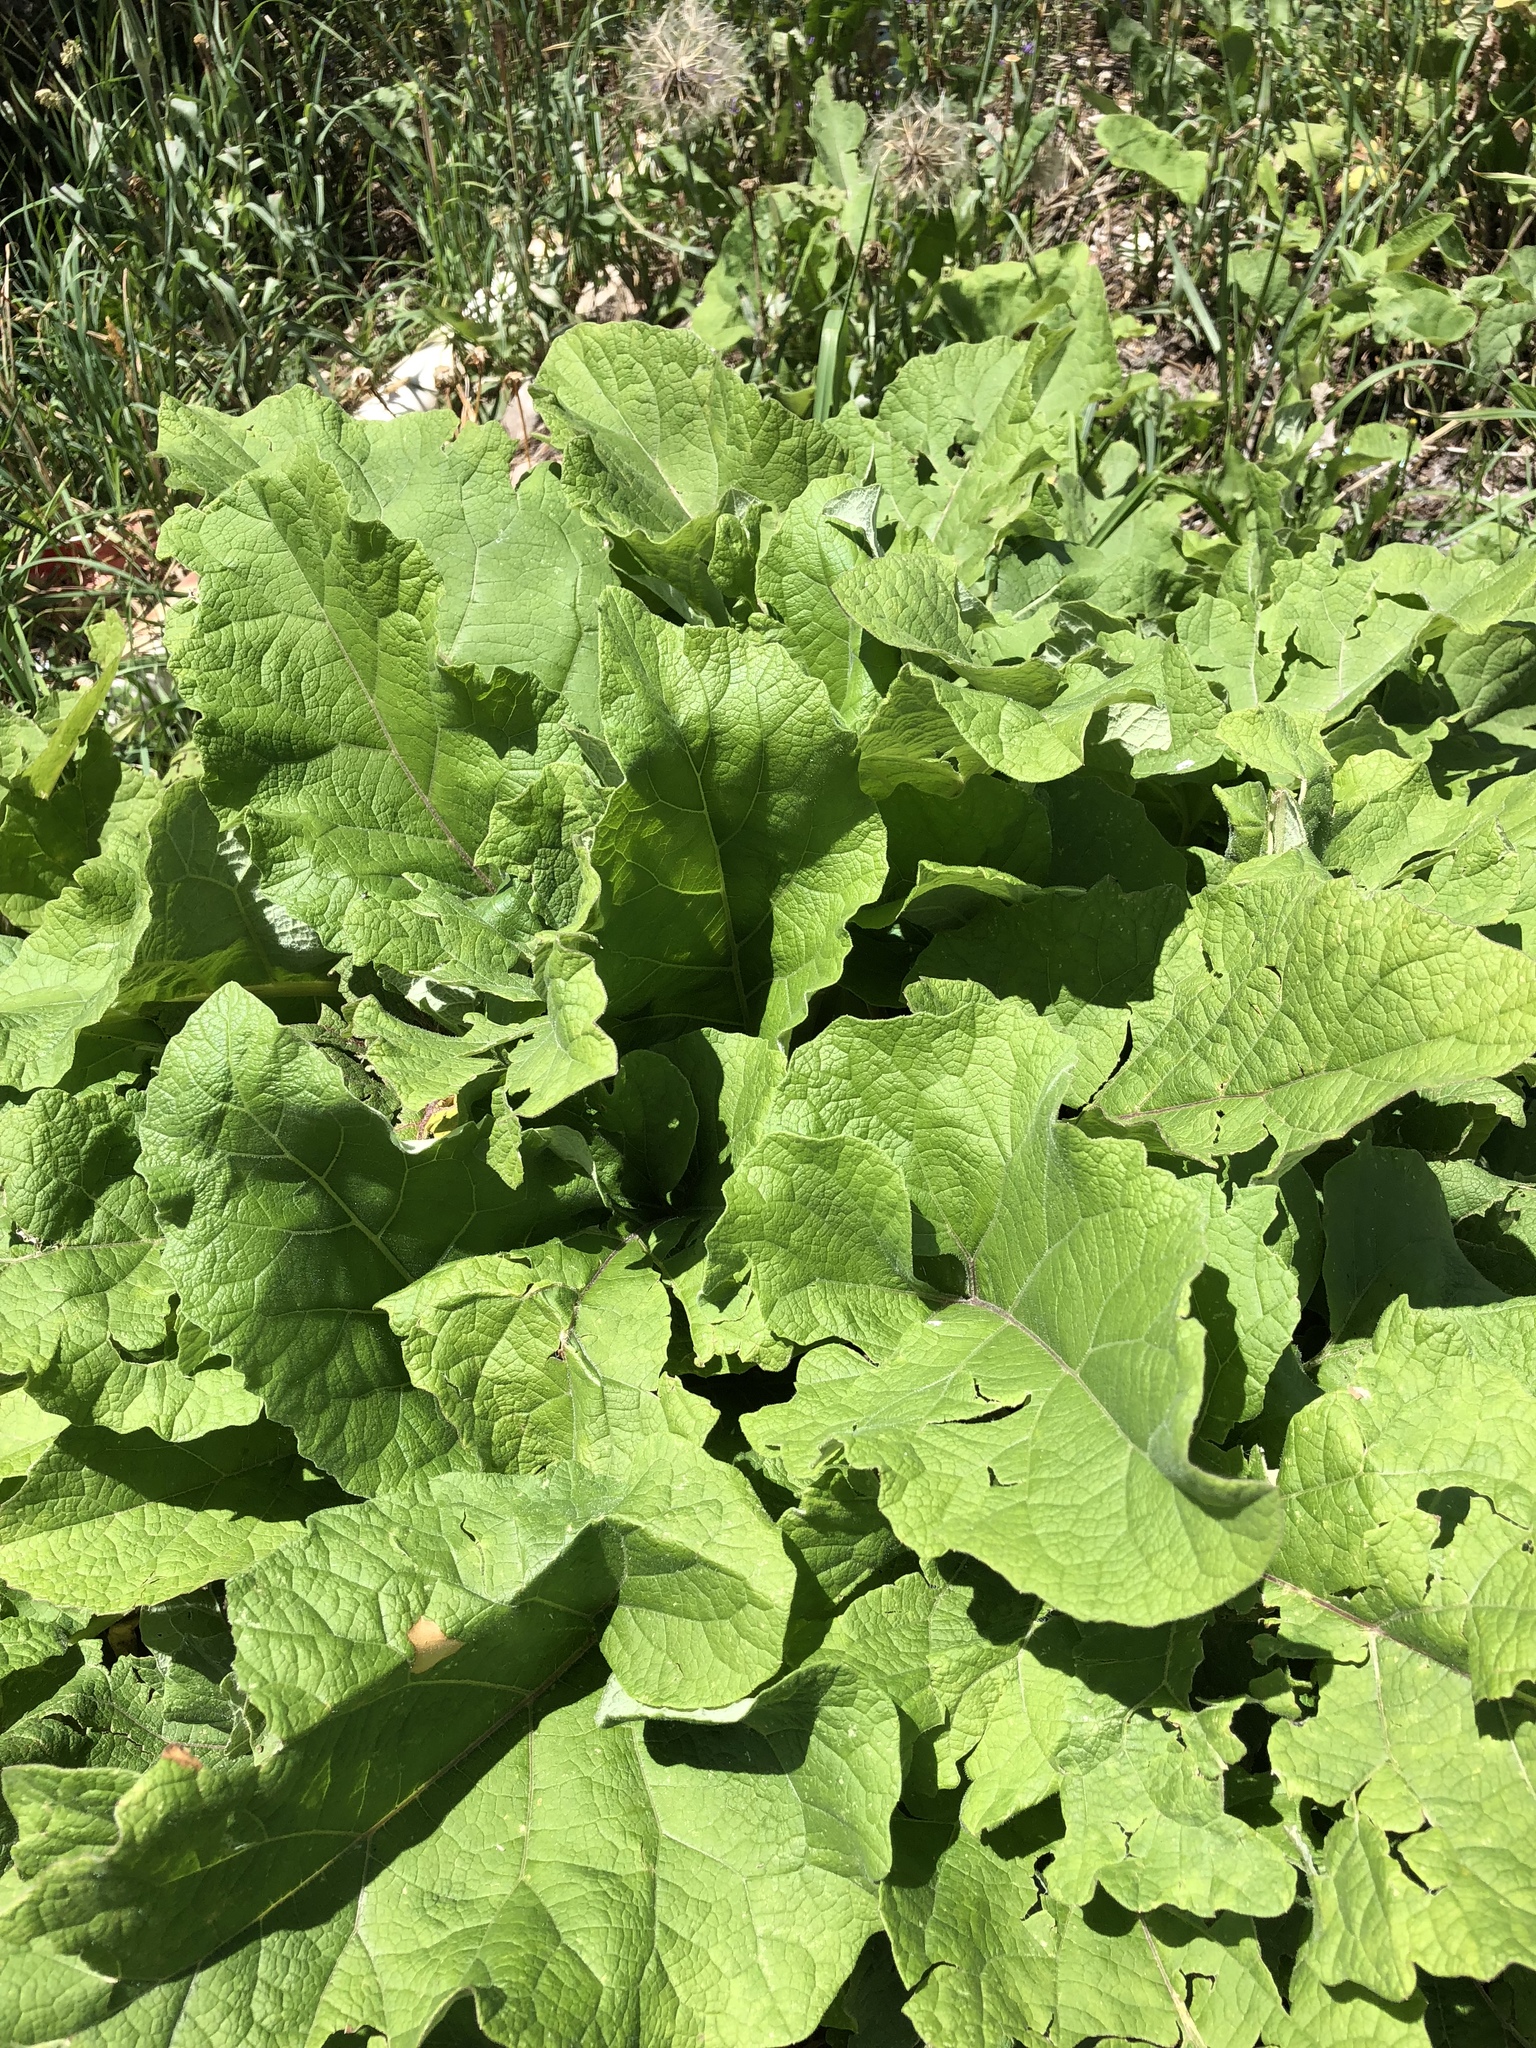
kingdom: Plantae
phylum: Tracheophyta
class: Magnoliopsida
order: Asterales
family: Asteraceae
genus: Arctium
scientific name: Arctium minus
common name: Lesser burdock
